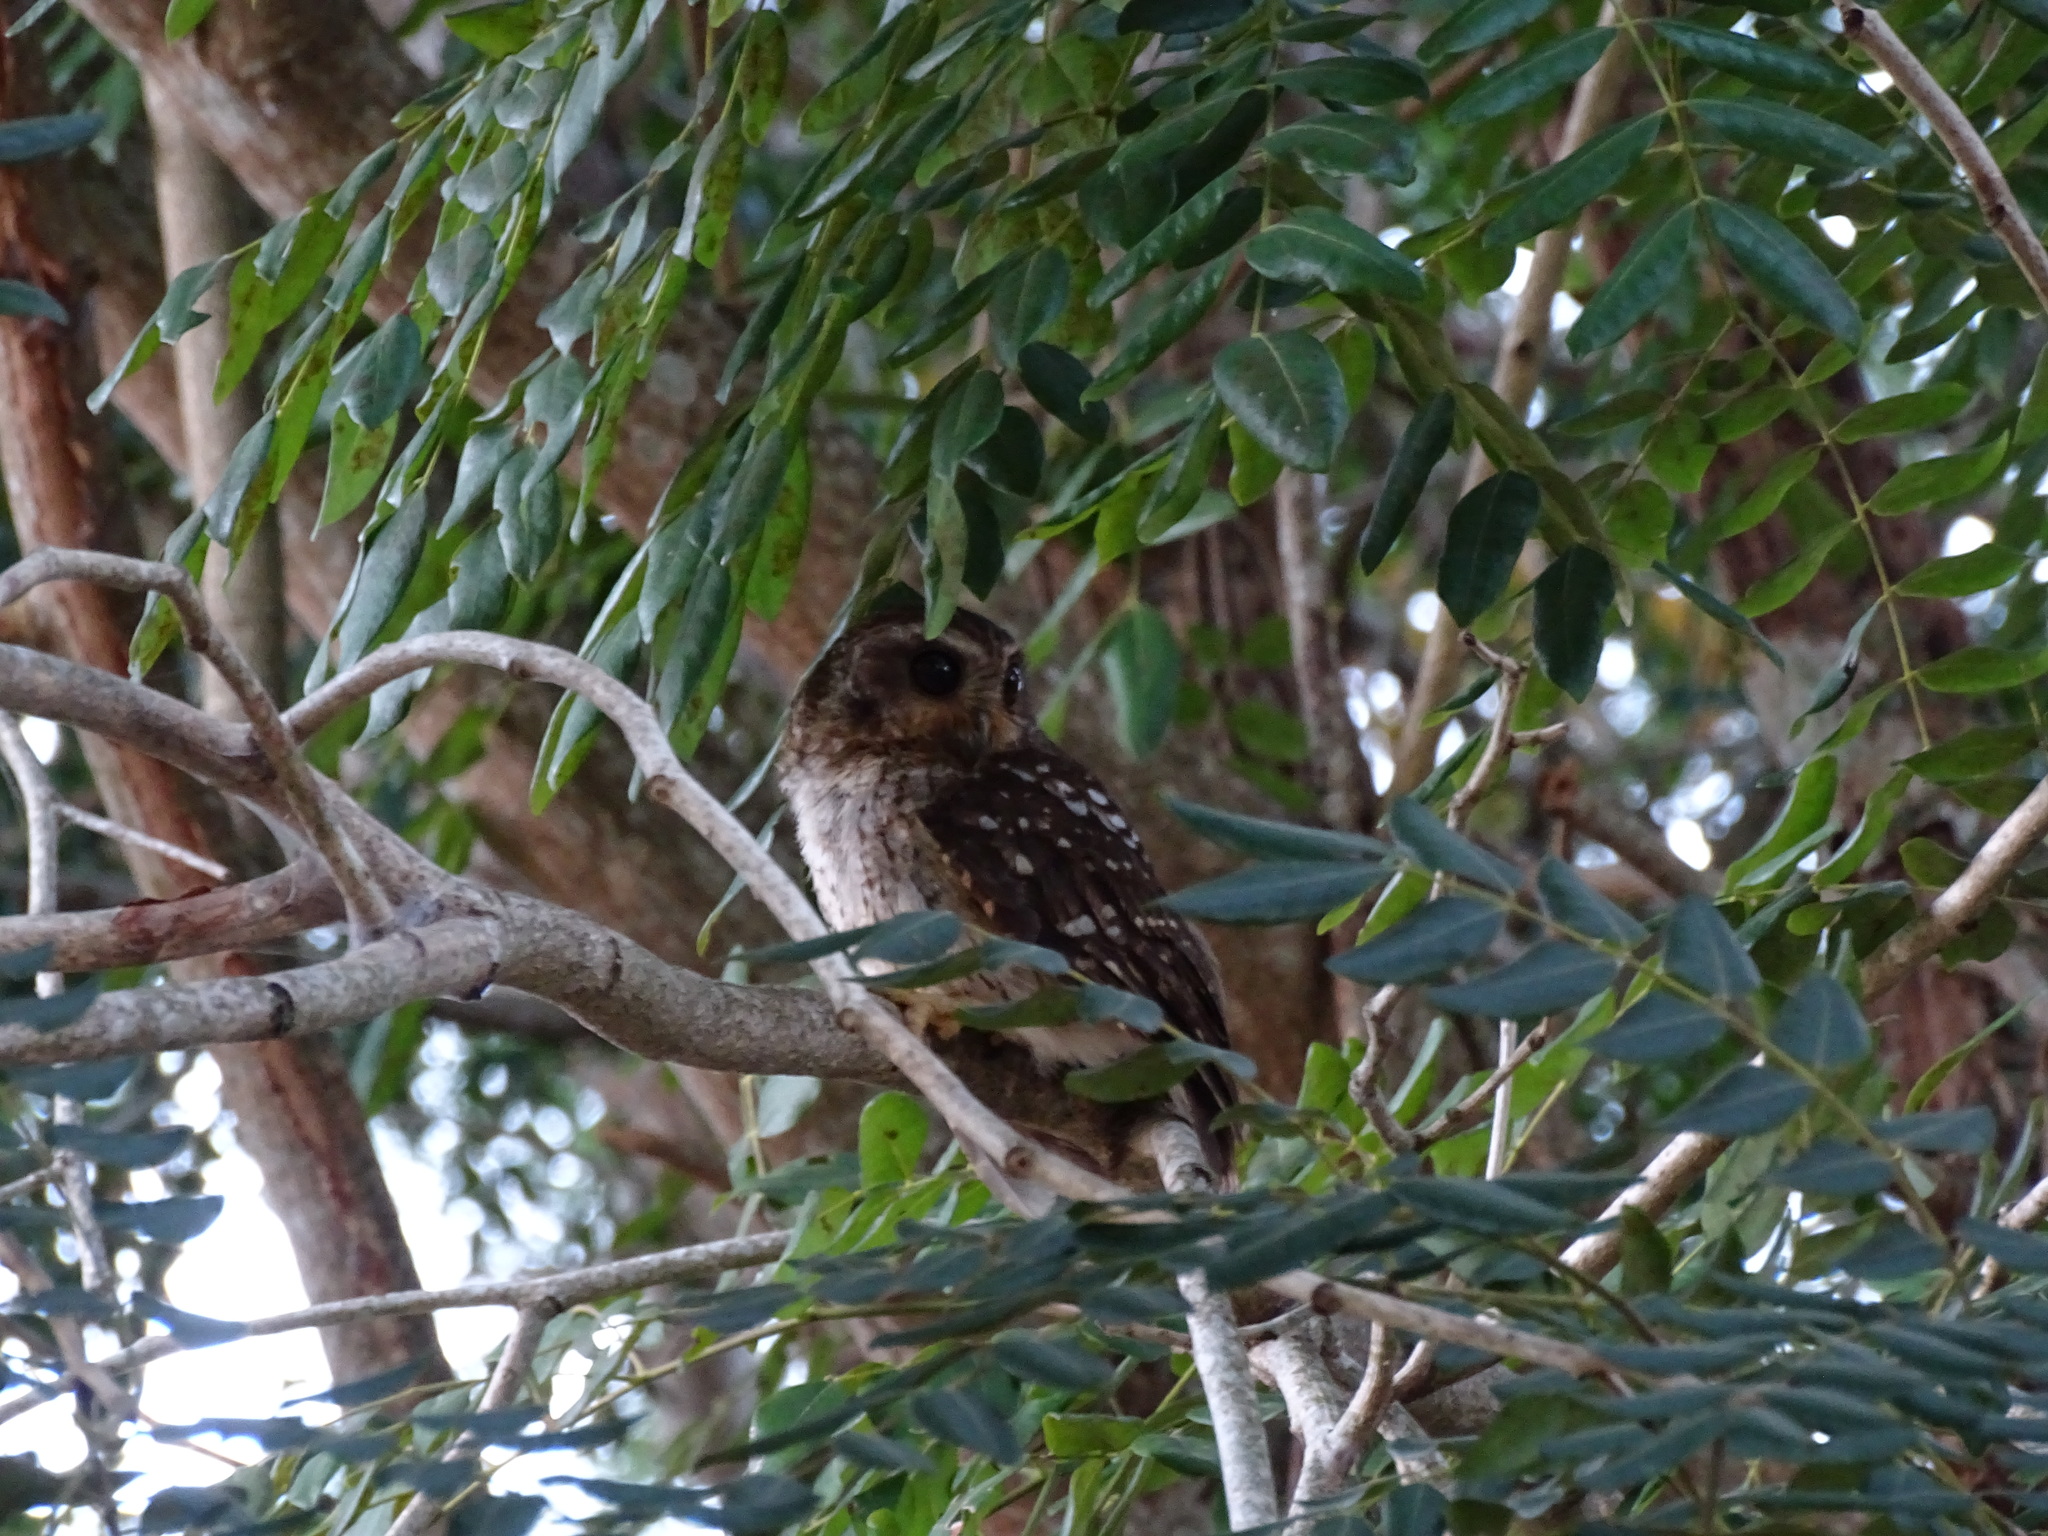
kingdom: Animalia
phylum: Chordata
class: Aves
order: Strigiformes
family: Strigidae
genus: Margarobyas
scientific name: Margarobyas lawrencii
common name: Bare-legged owl
